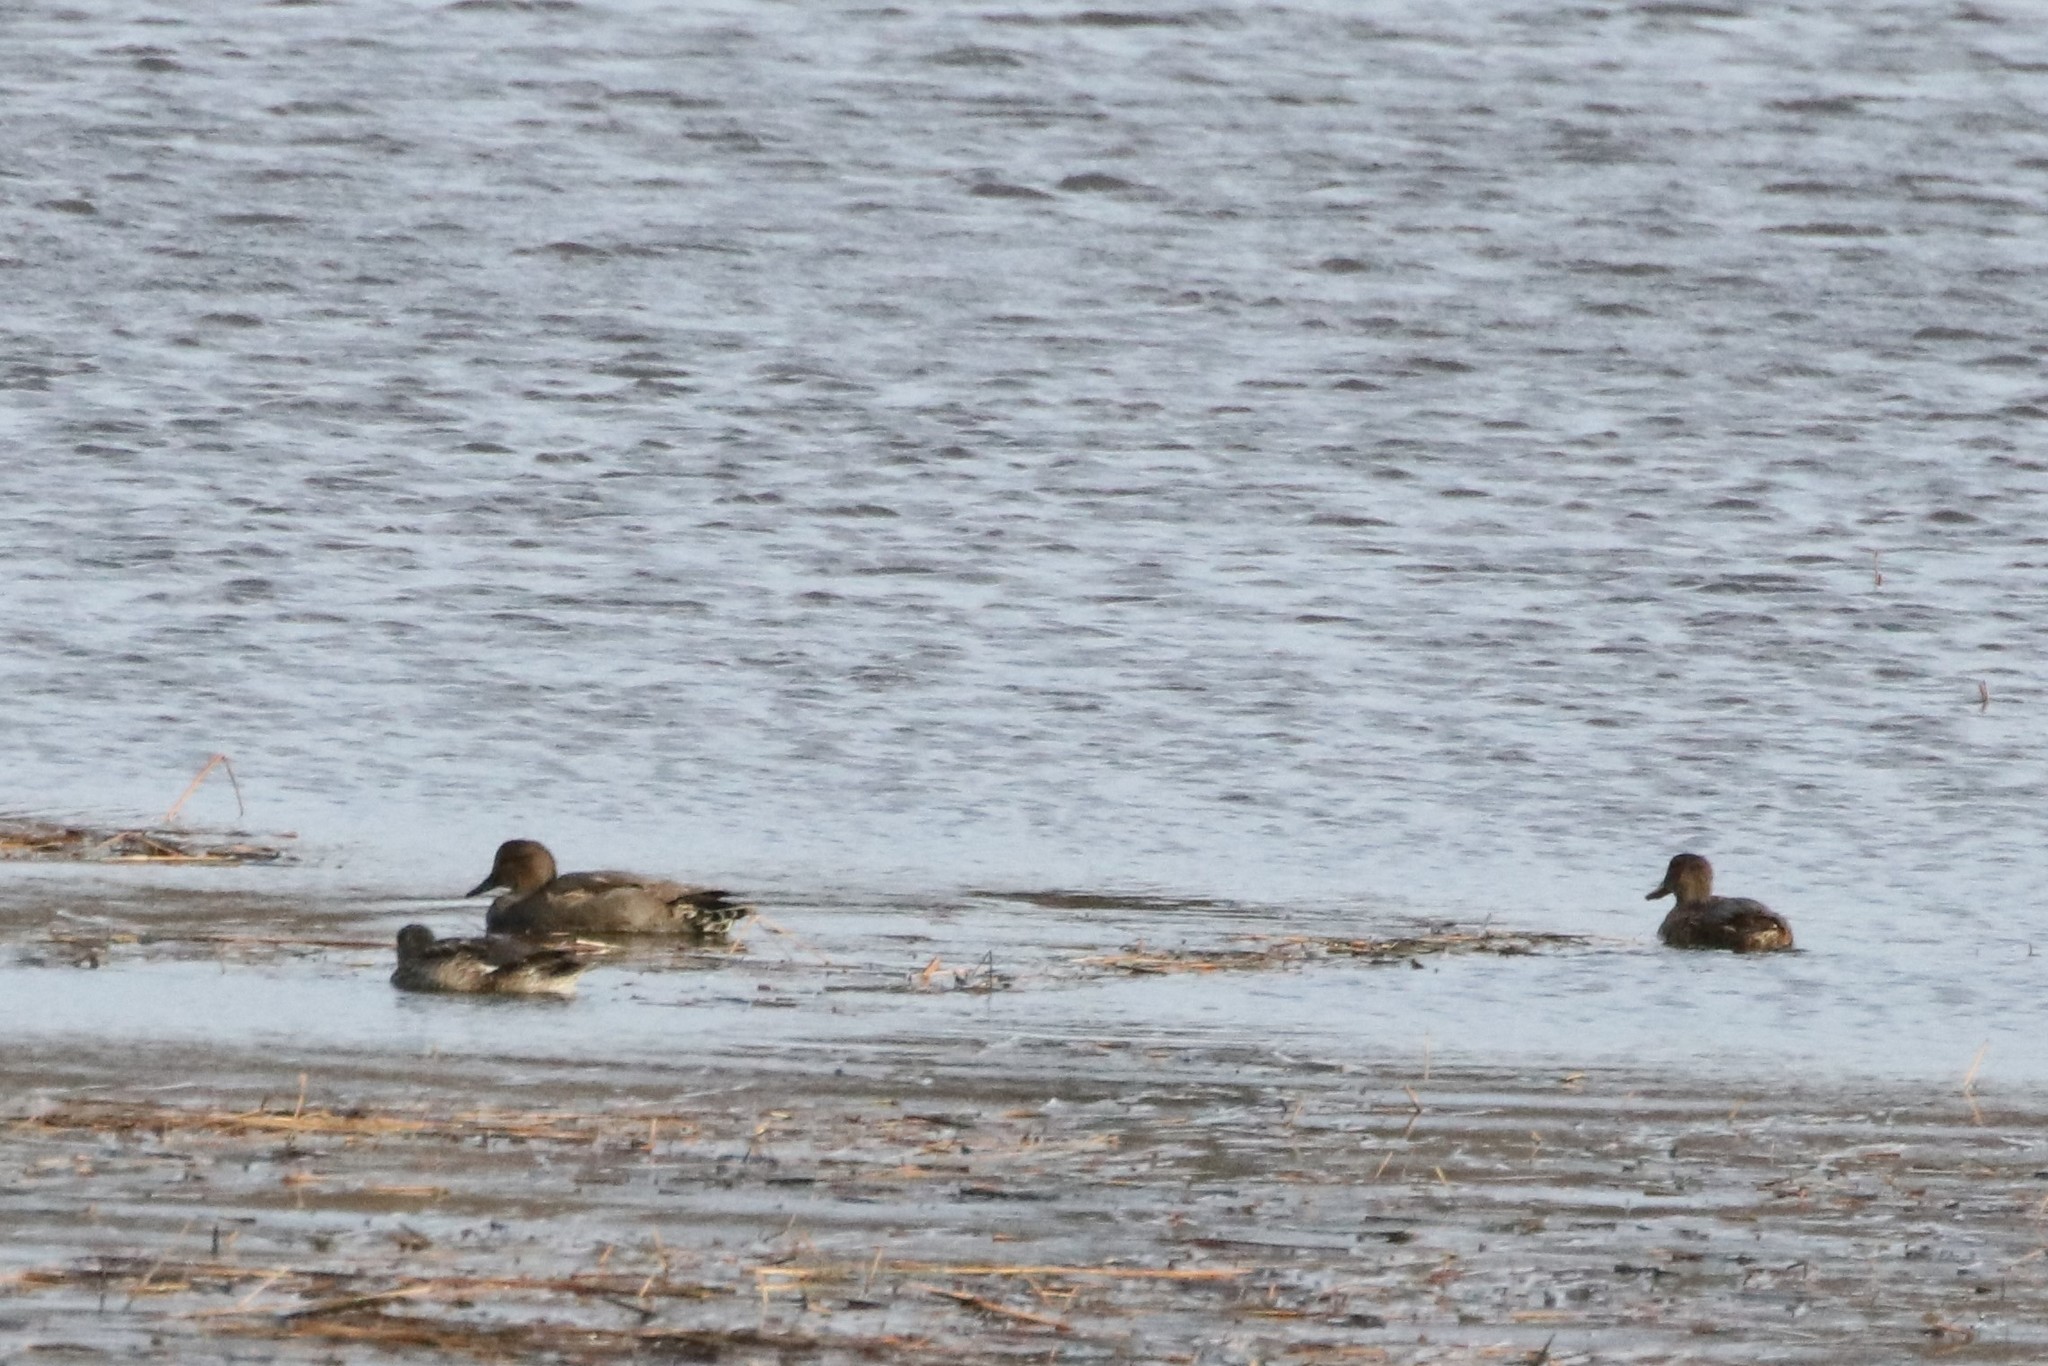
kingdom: Animalia
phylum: Chordata
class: Aves
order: Anseriformes
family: Anatidae
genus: Mareca
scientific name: Mareca strepera
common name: Gadwall
